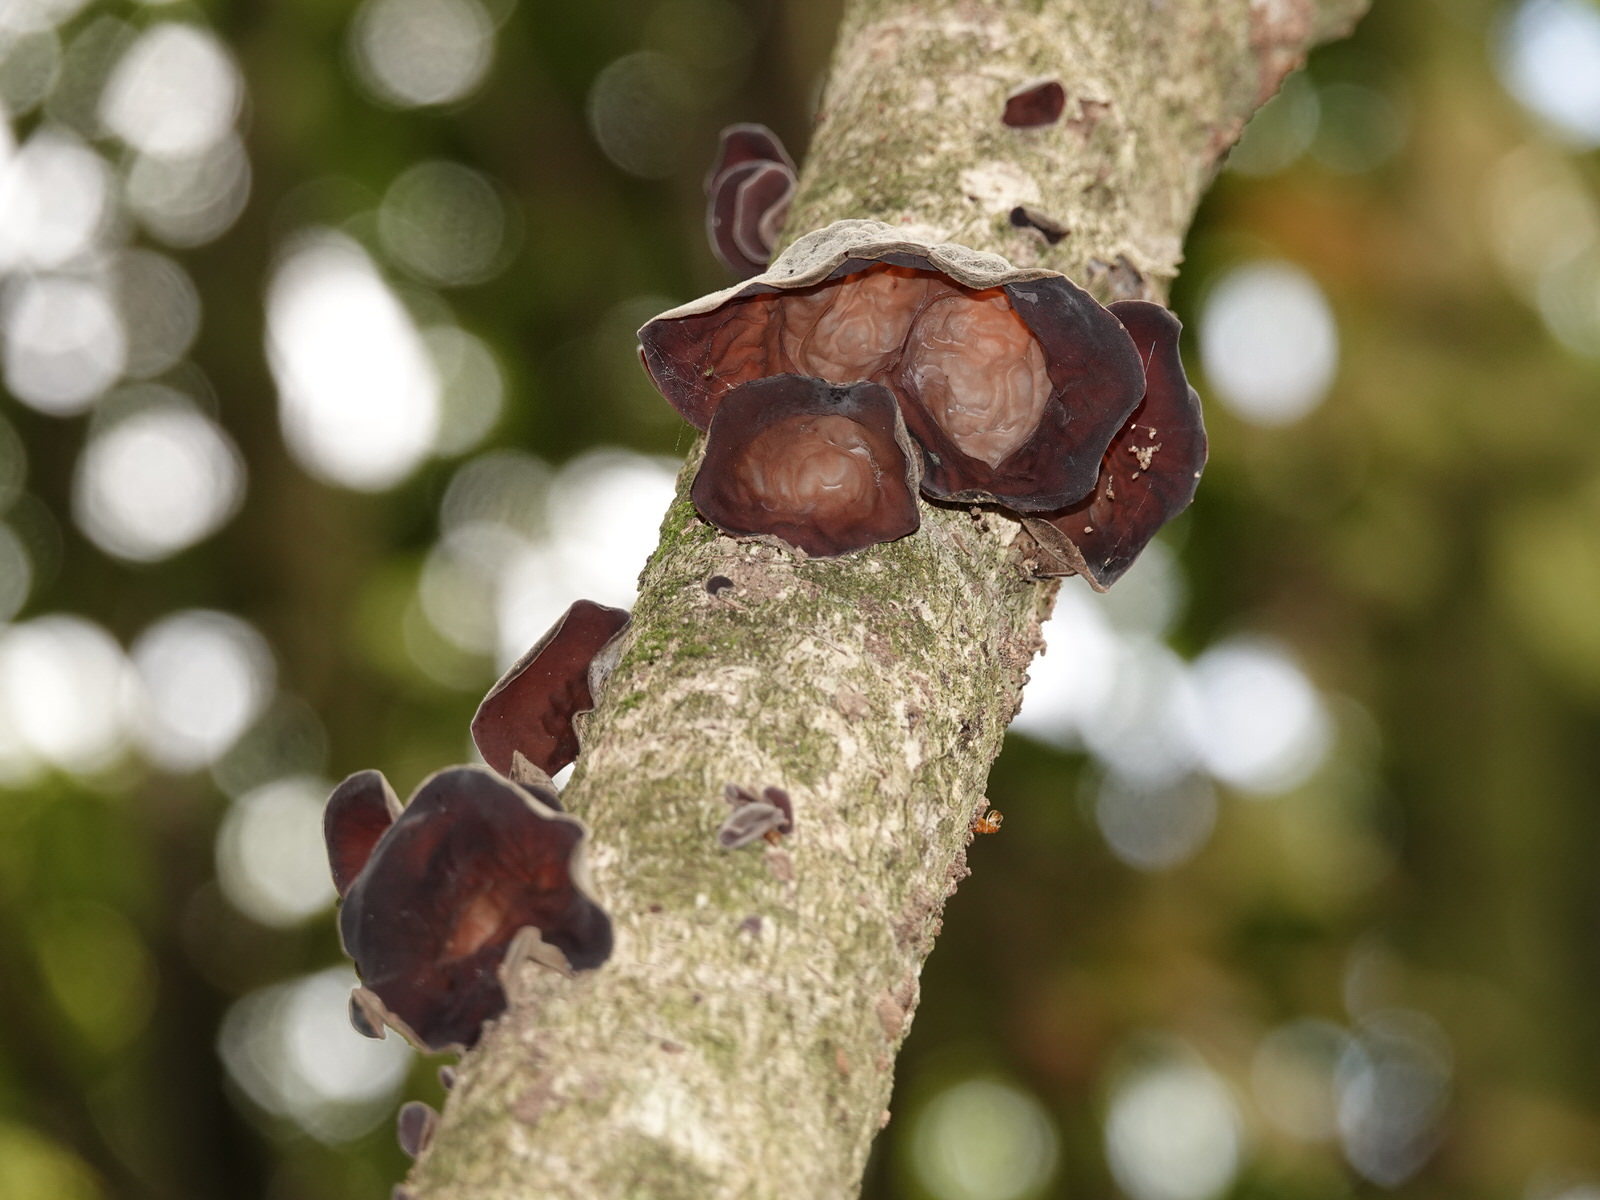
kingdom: Fungi
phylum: Basidiomycota
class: Agaricomycetes
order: Auriculariales
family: Auriculariaceae
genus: Auricularia
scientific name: Auricularia cornea
